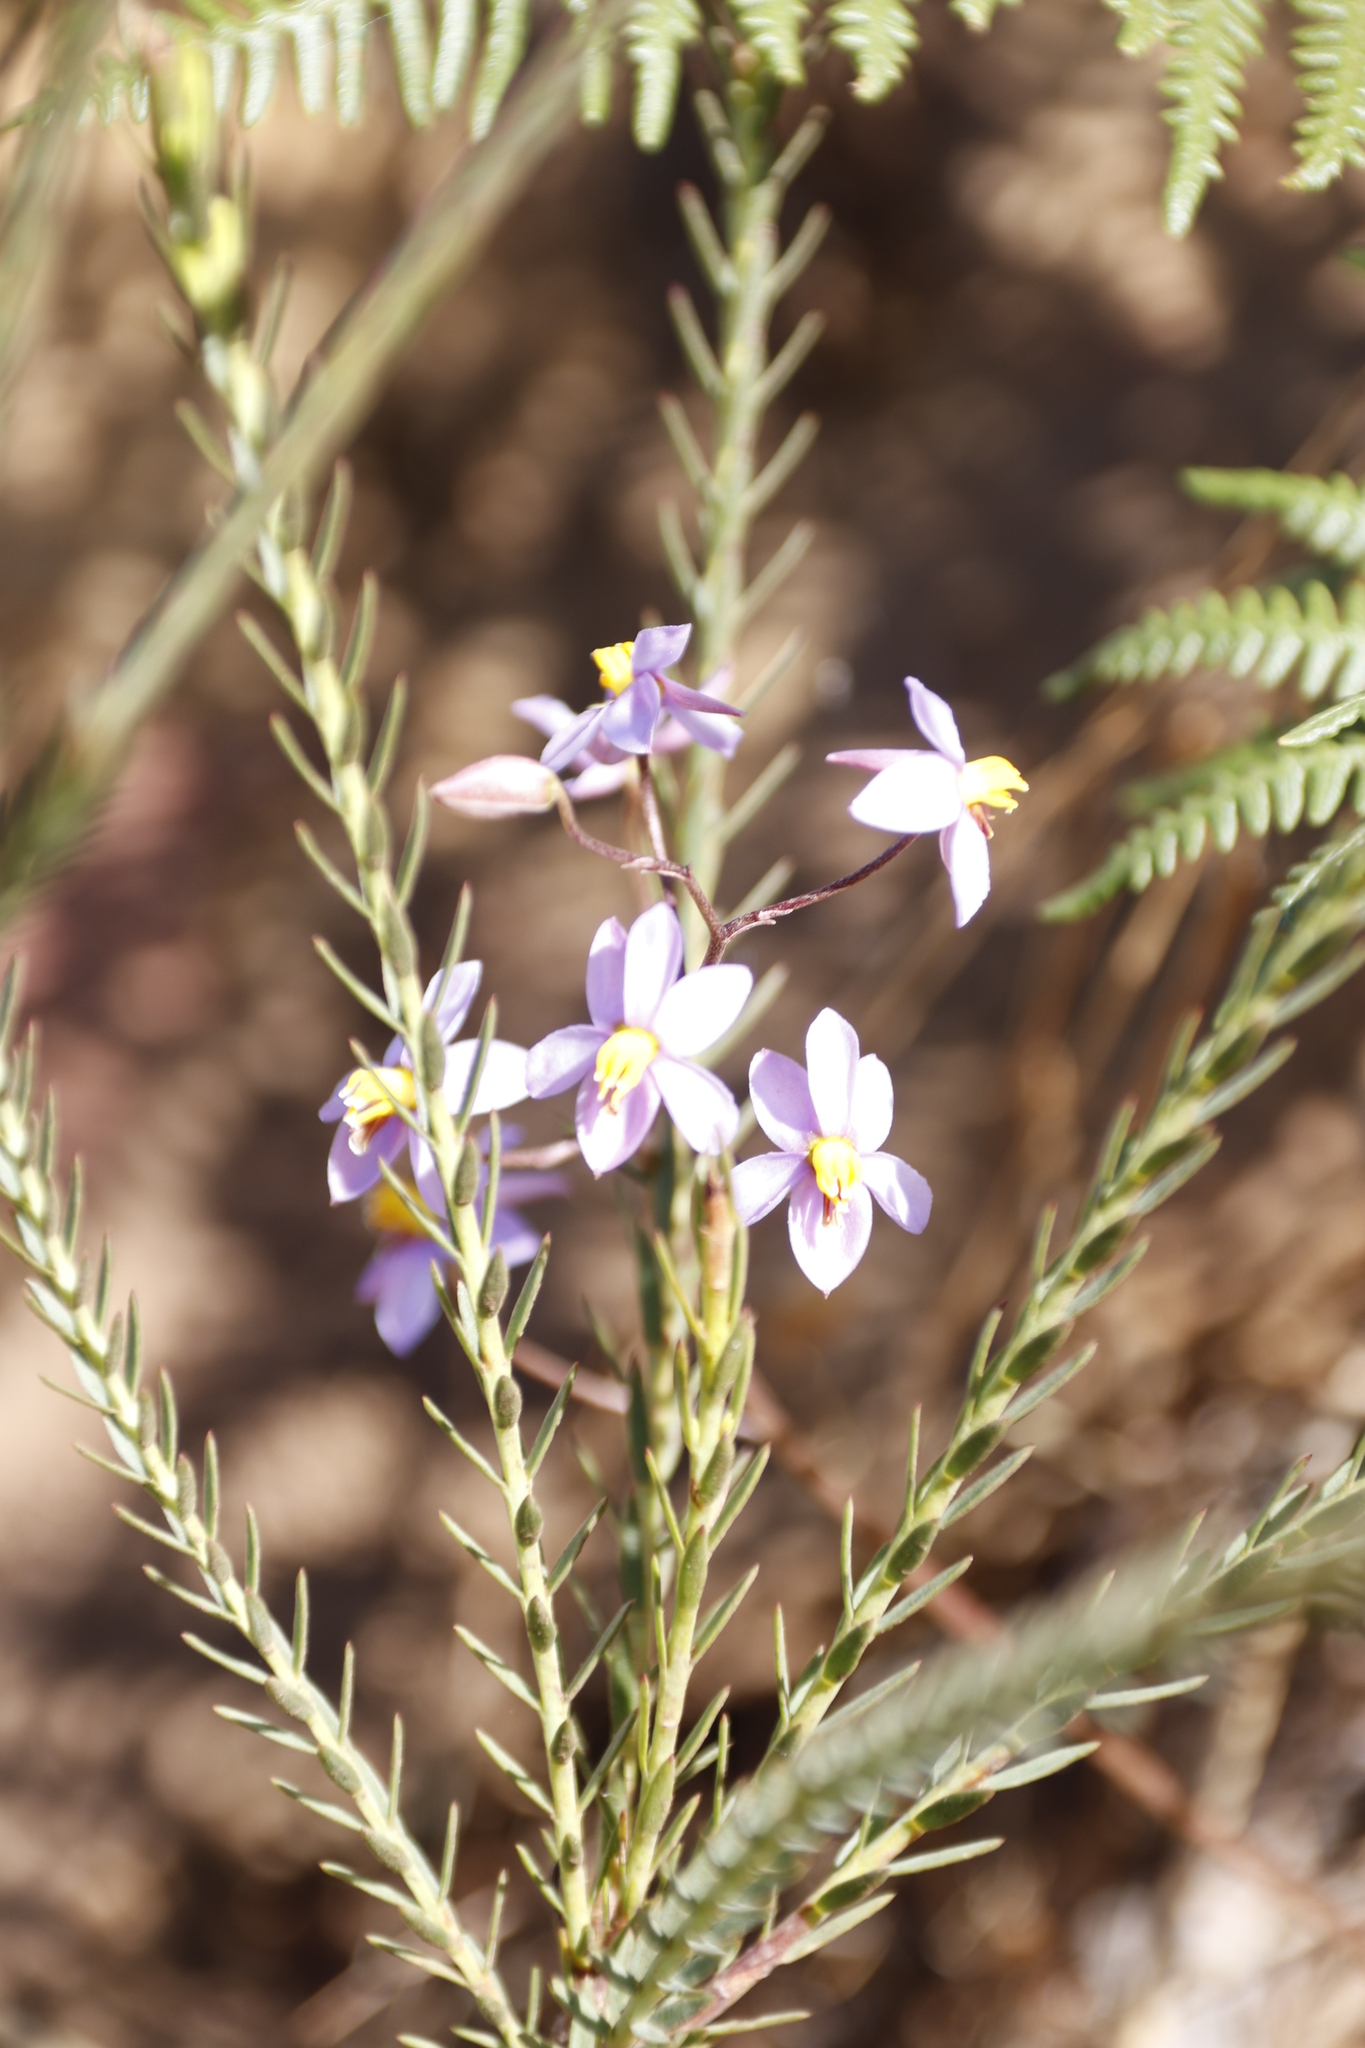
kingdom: Plantae
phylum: Tracheophyta
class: Liliopsida
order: Asparagales
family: Tecophilaeaceae
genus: Cyanella
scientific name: Cyanella hyacinthoides
